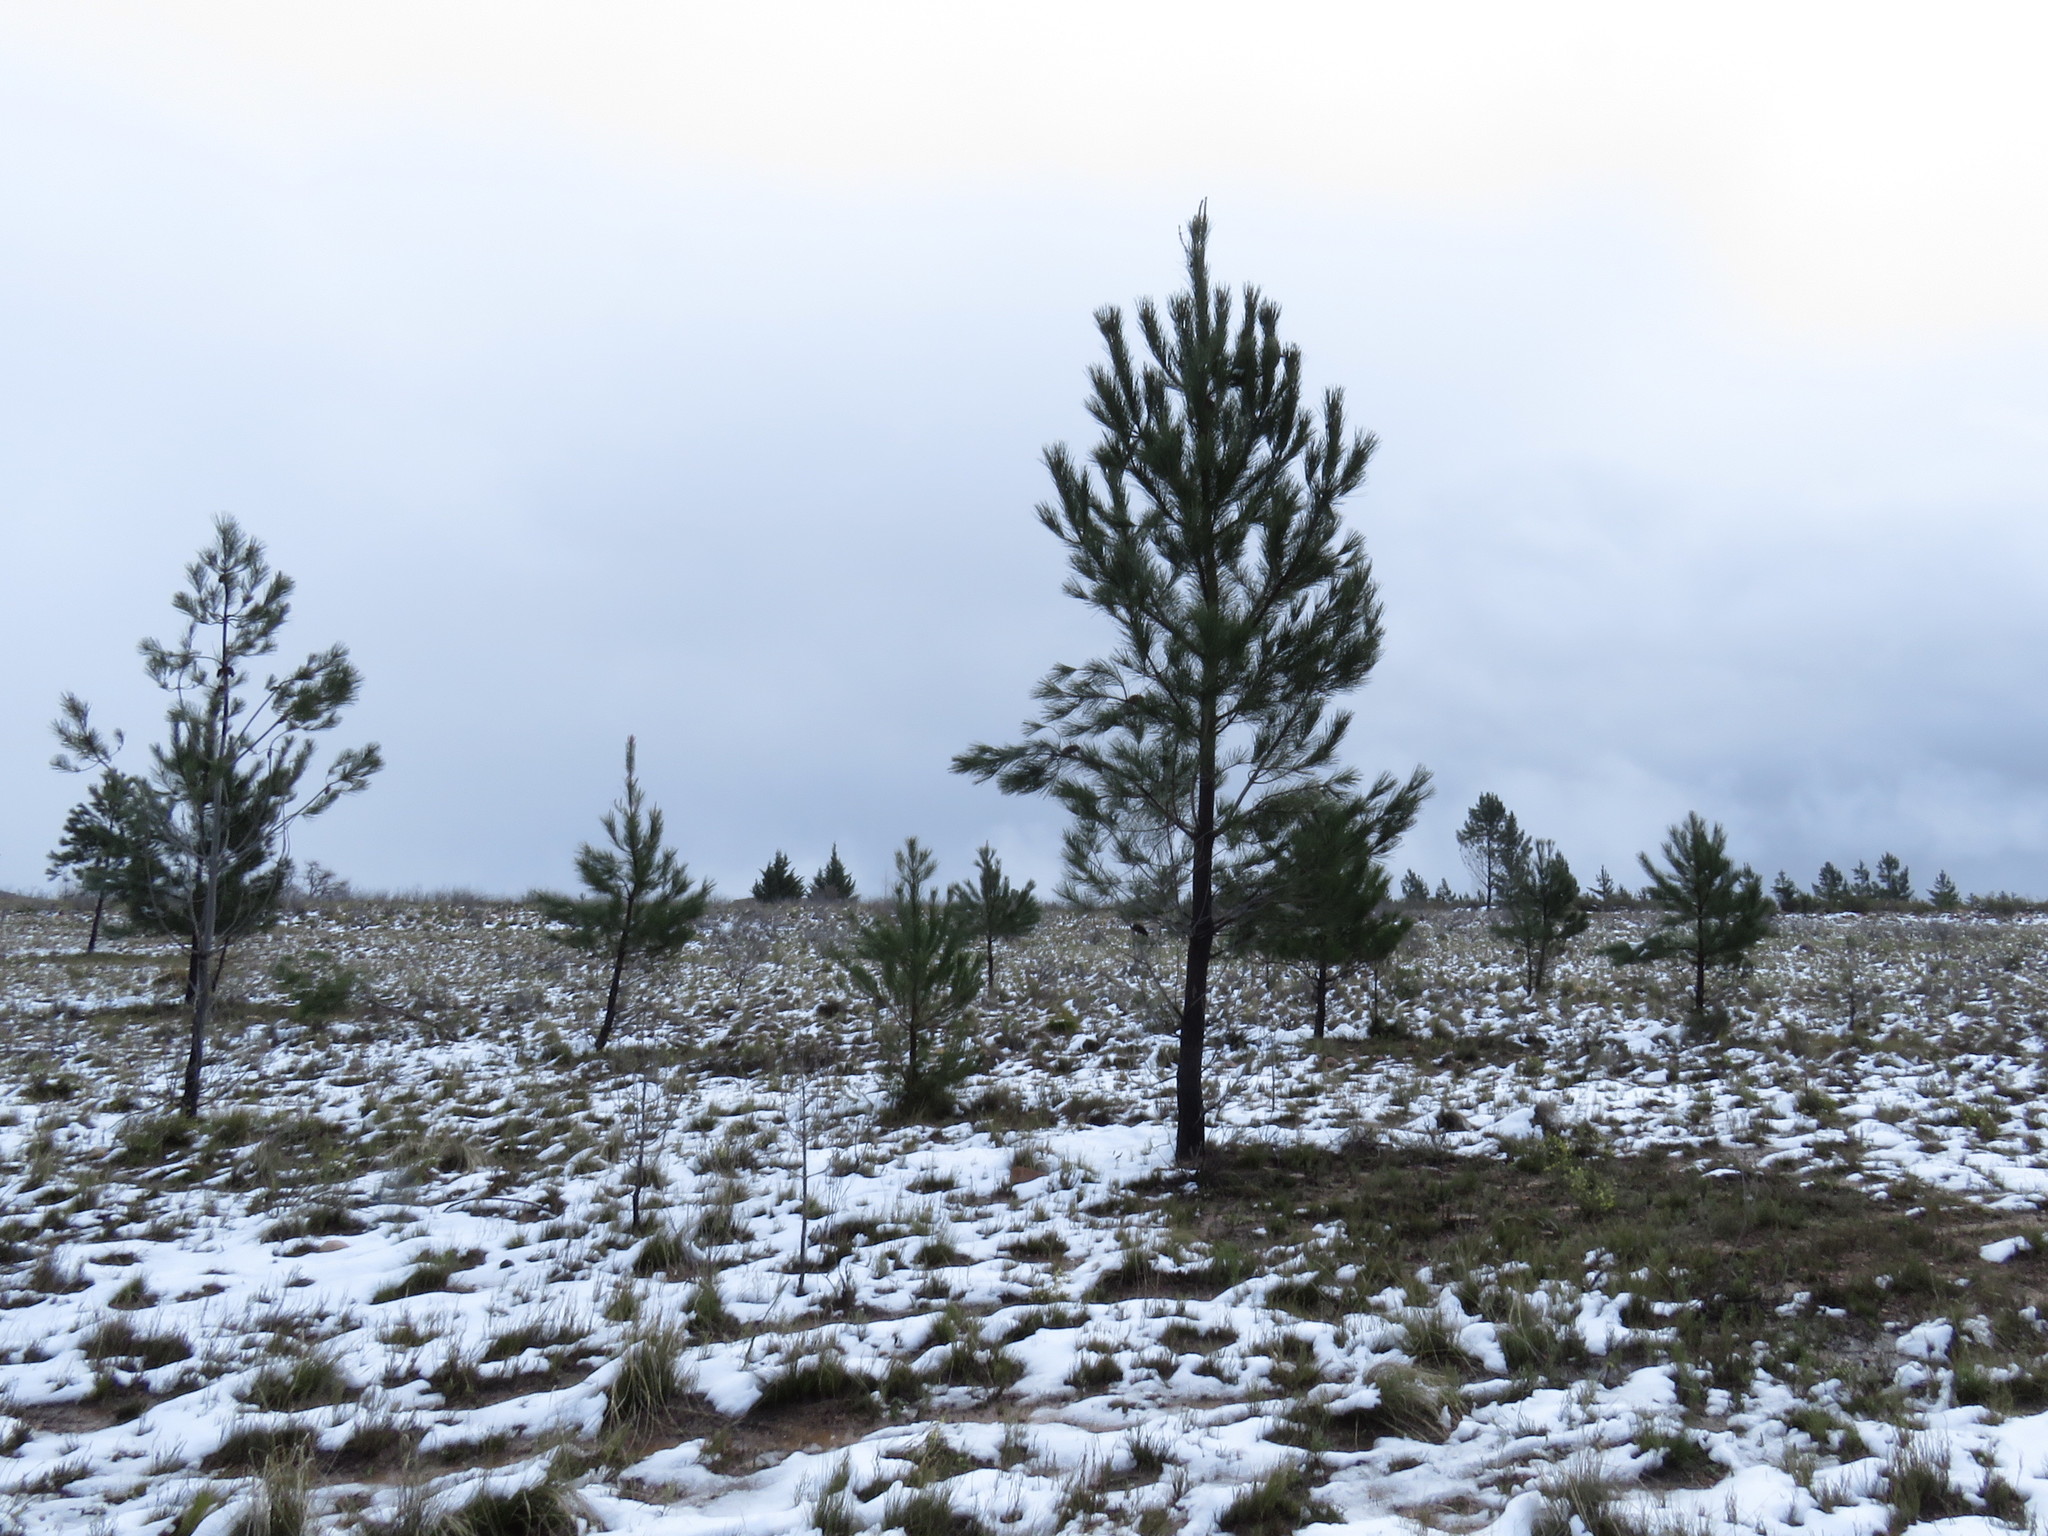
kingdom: Plantae
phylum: Tracheophyta
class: Pinopsida
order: Pinales
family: Pinaceae
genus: Pinus
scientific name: Pinus halepensis
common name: Aleppo pine
